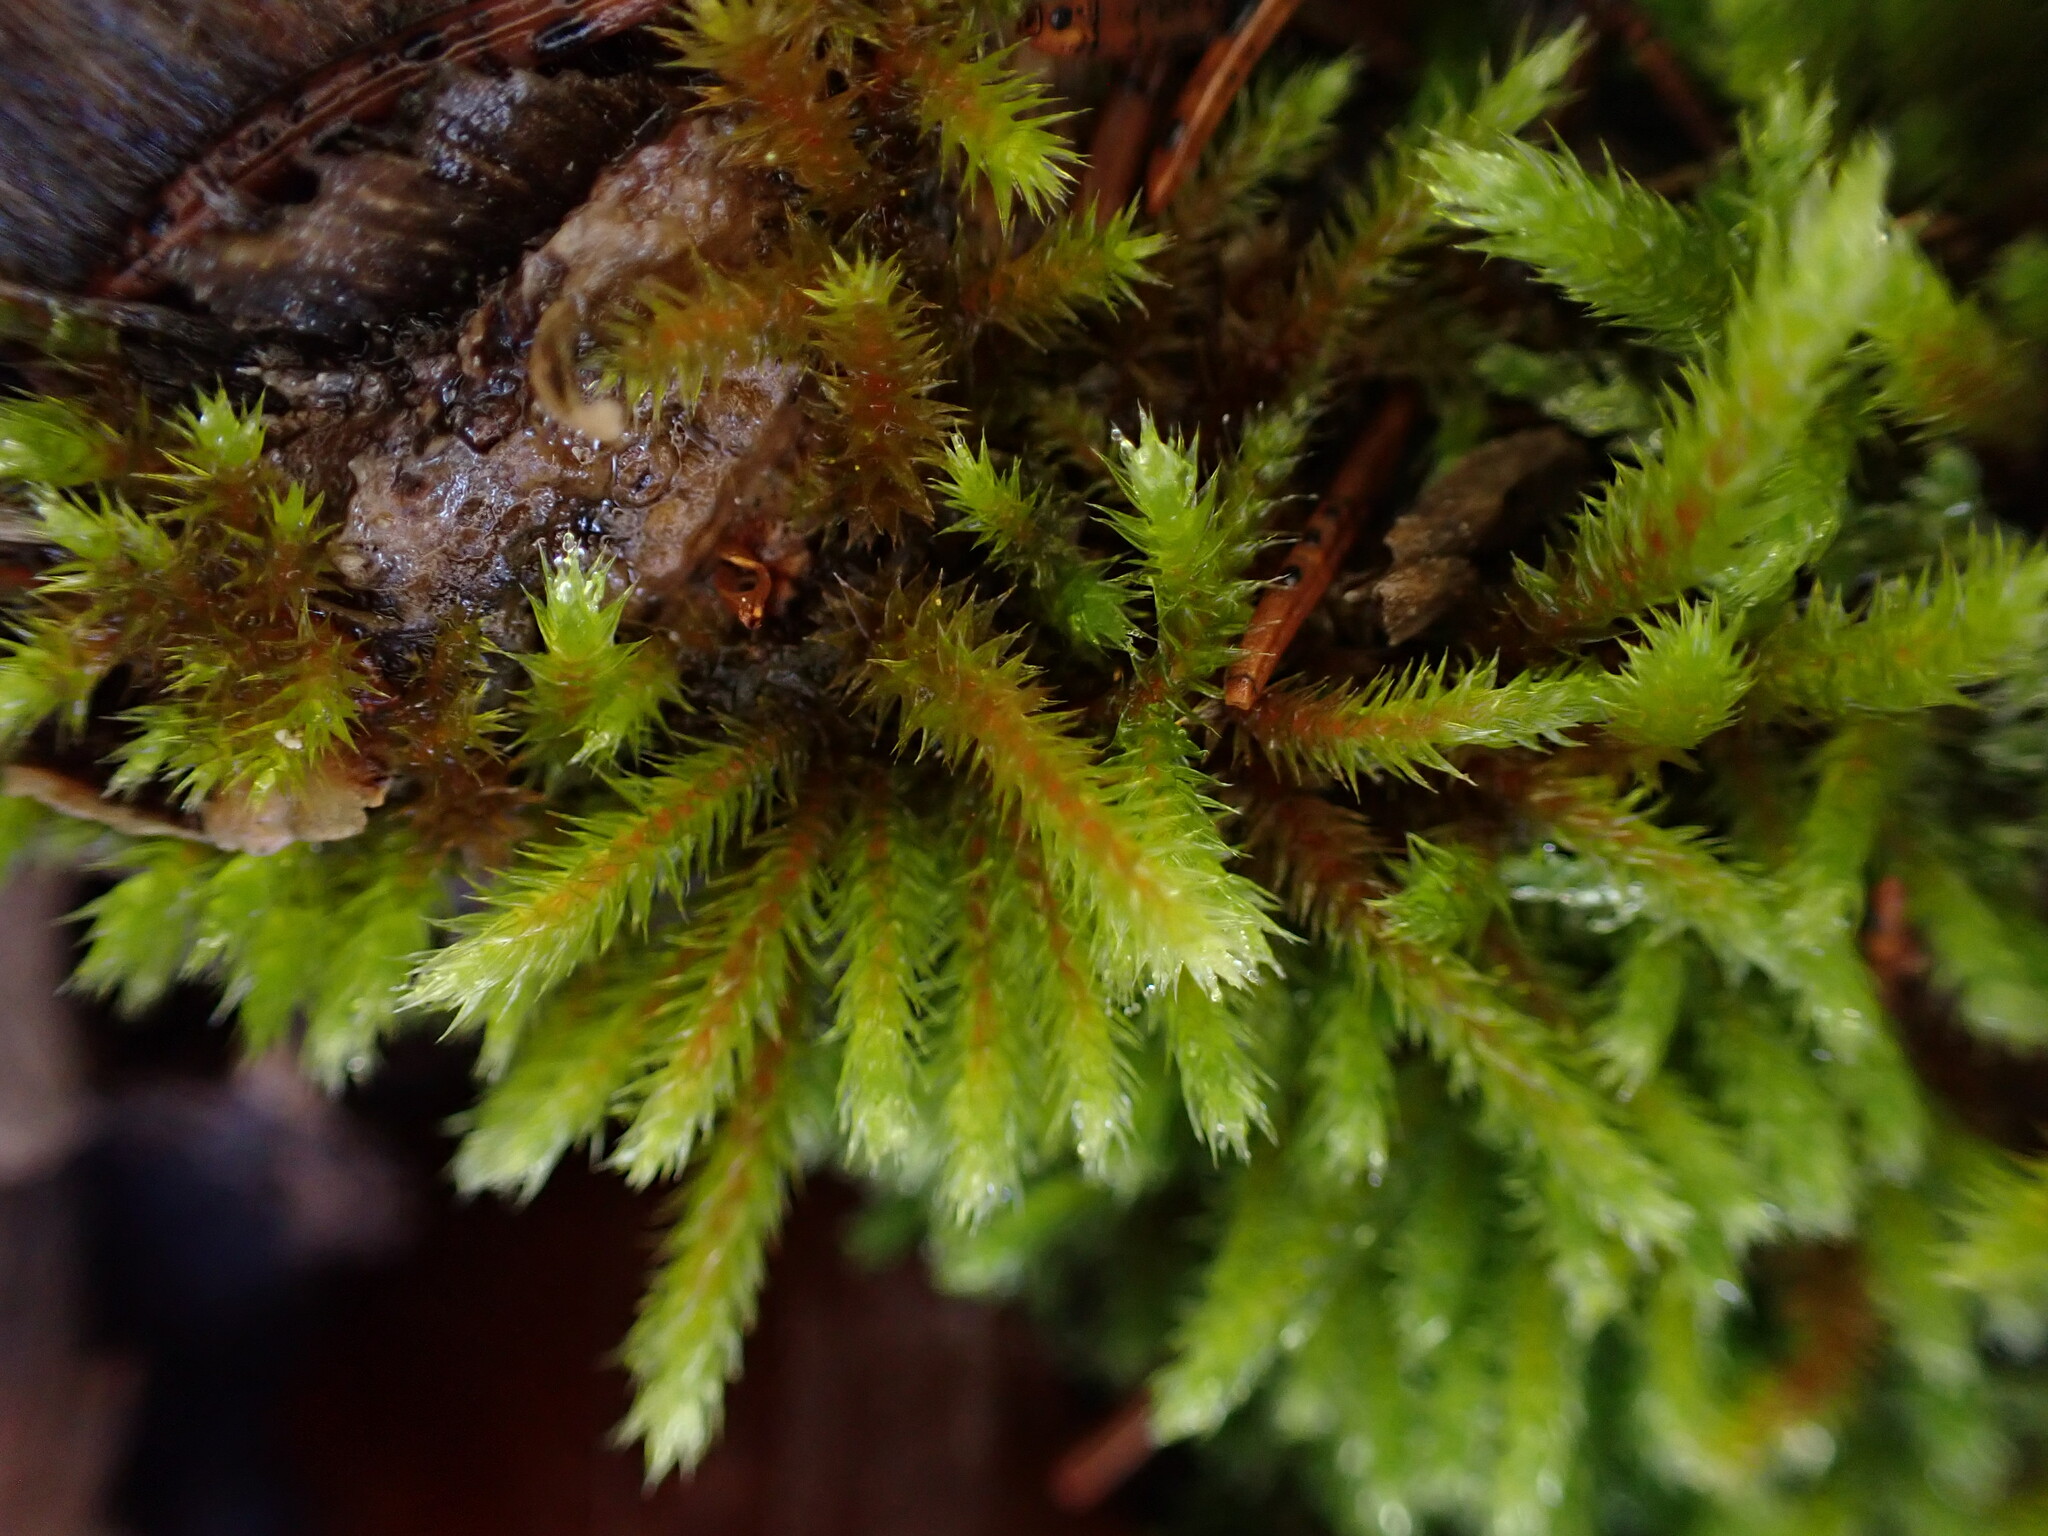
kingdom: Plantae
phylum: Bryophyta
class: Bryopsida
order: Hypnales
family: Leucodontaceae
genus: Leucodon
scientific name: Leucodon sciuroides
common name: Squirrel-tail moss
